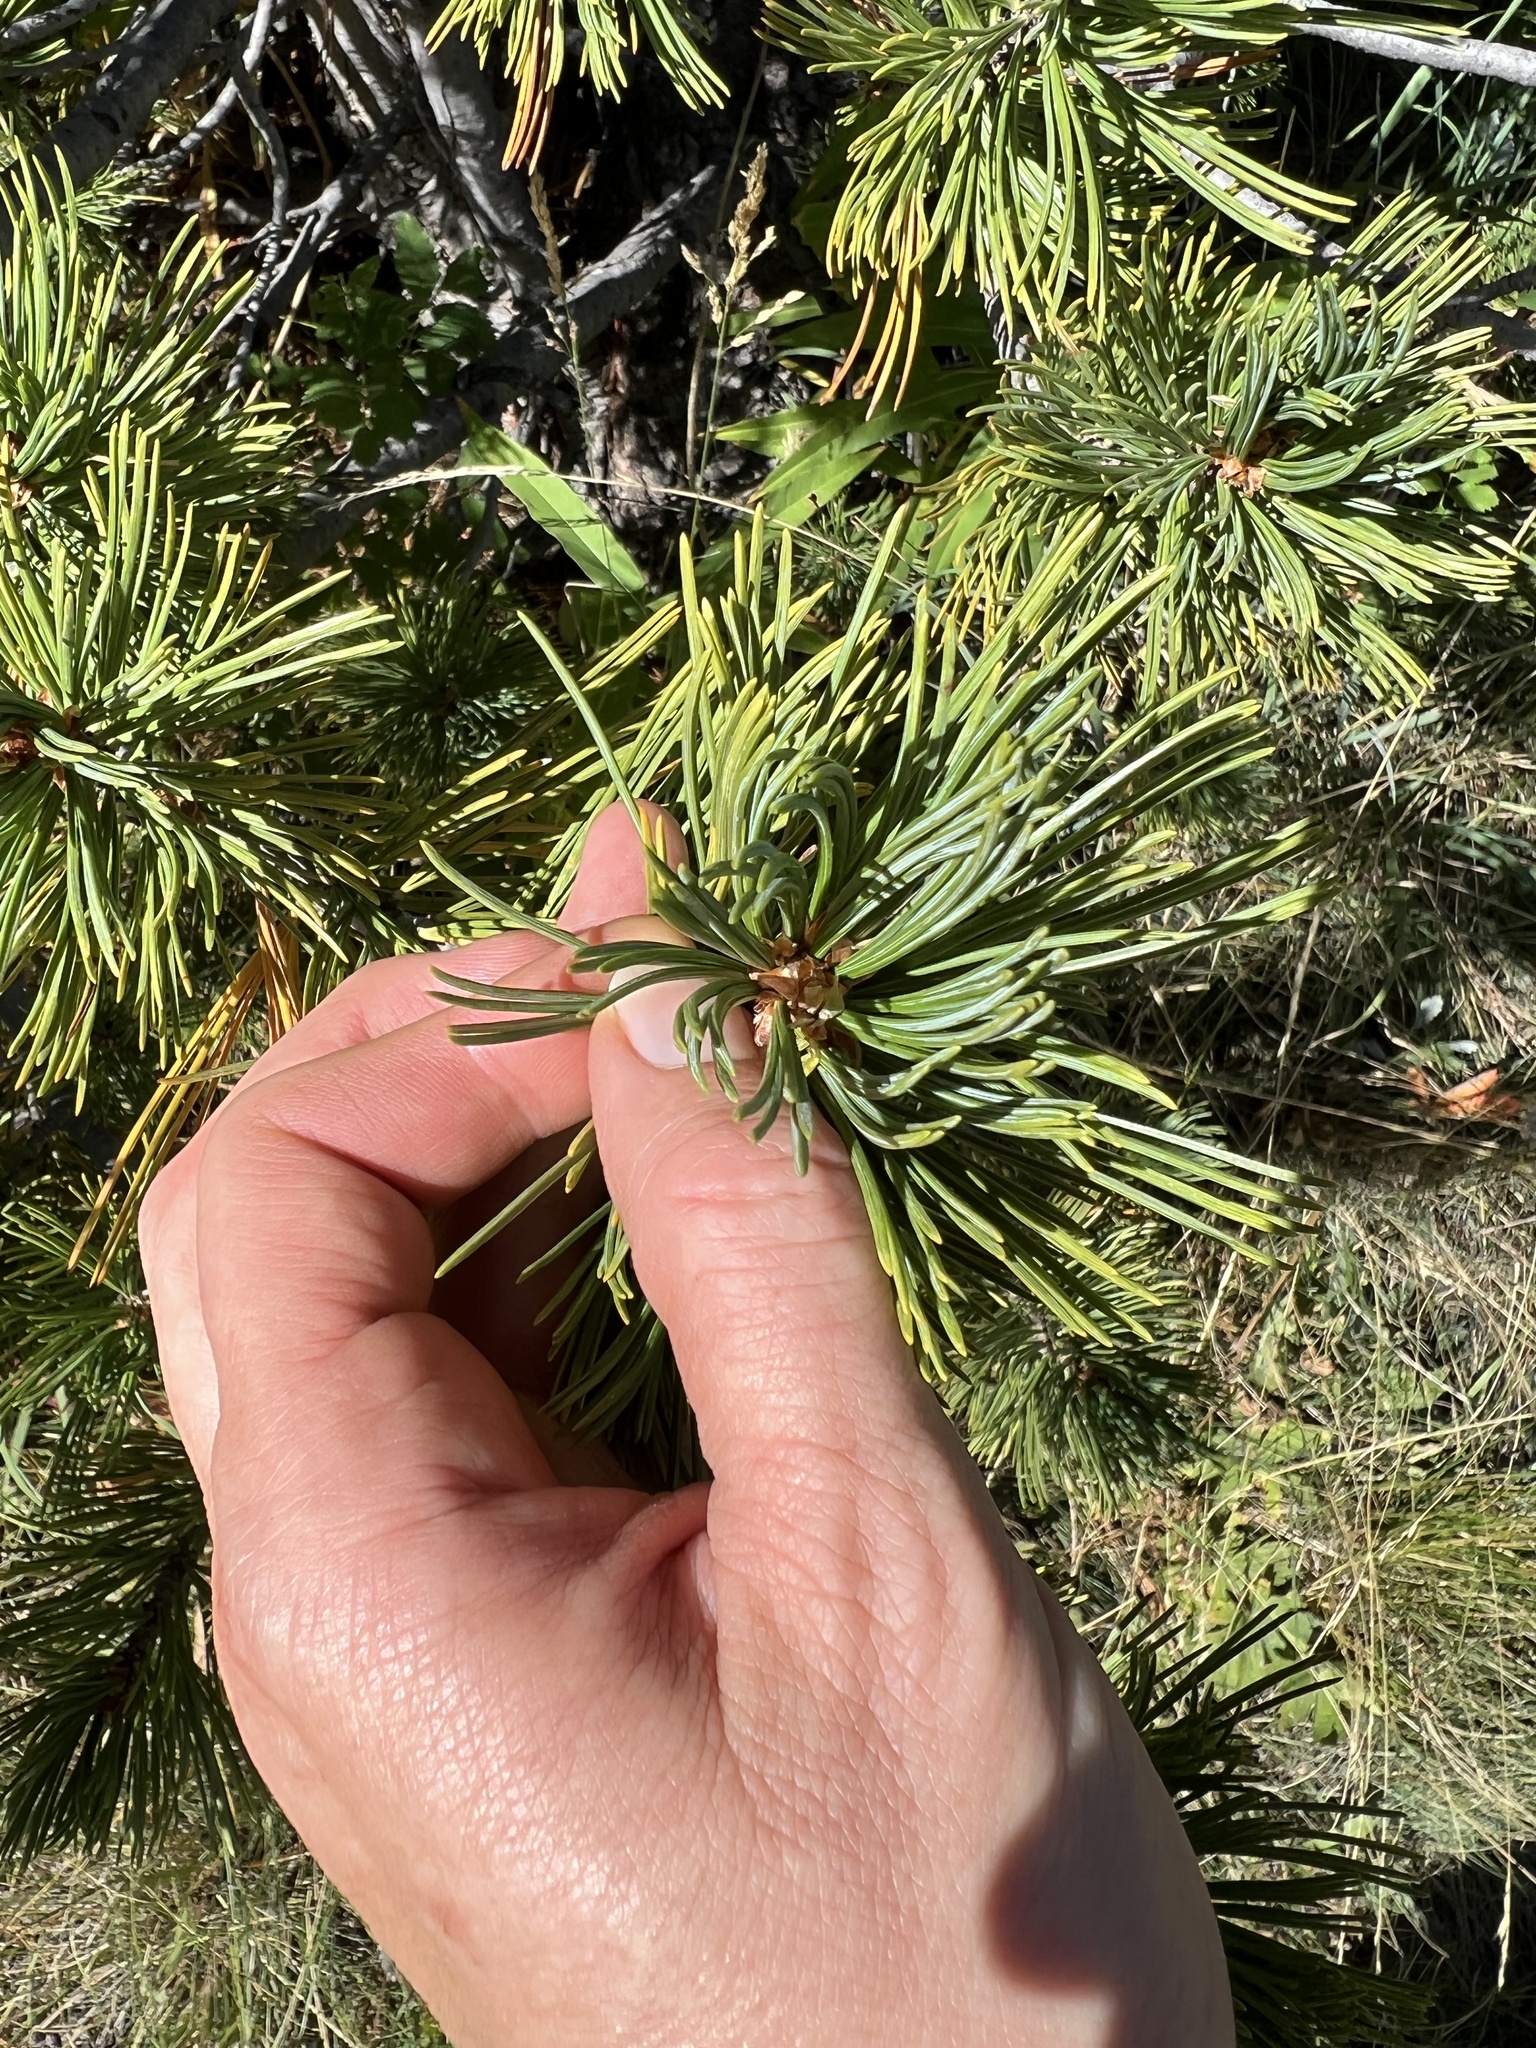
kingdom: Plantae
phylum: Tracheophyta
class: Pinopsida
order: Pinales
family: Pinaceae
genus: Pinus
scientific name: Pinus
